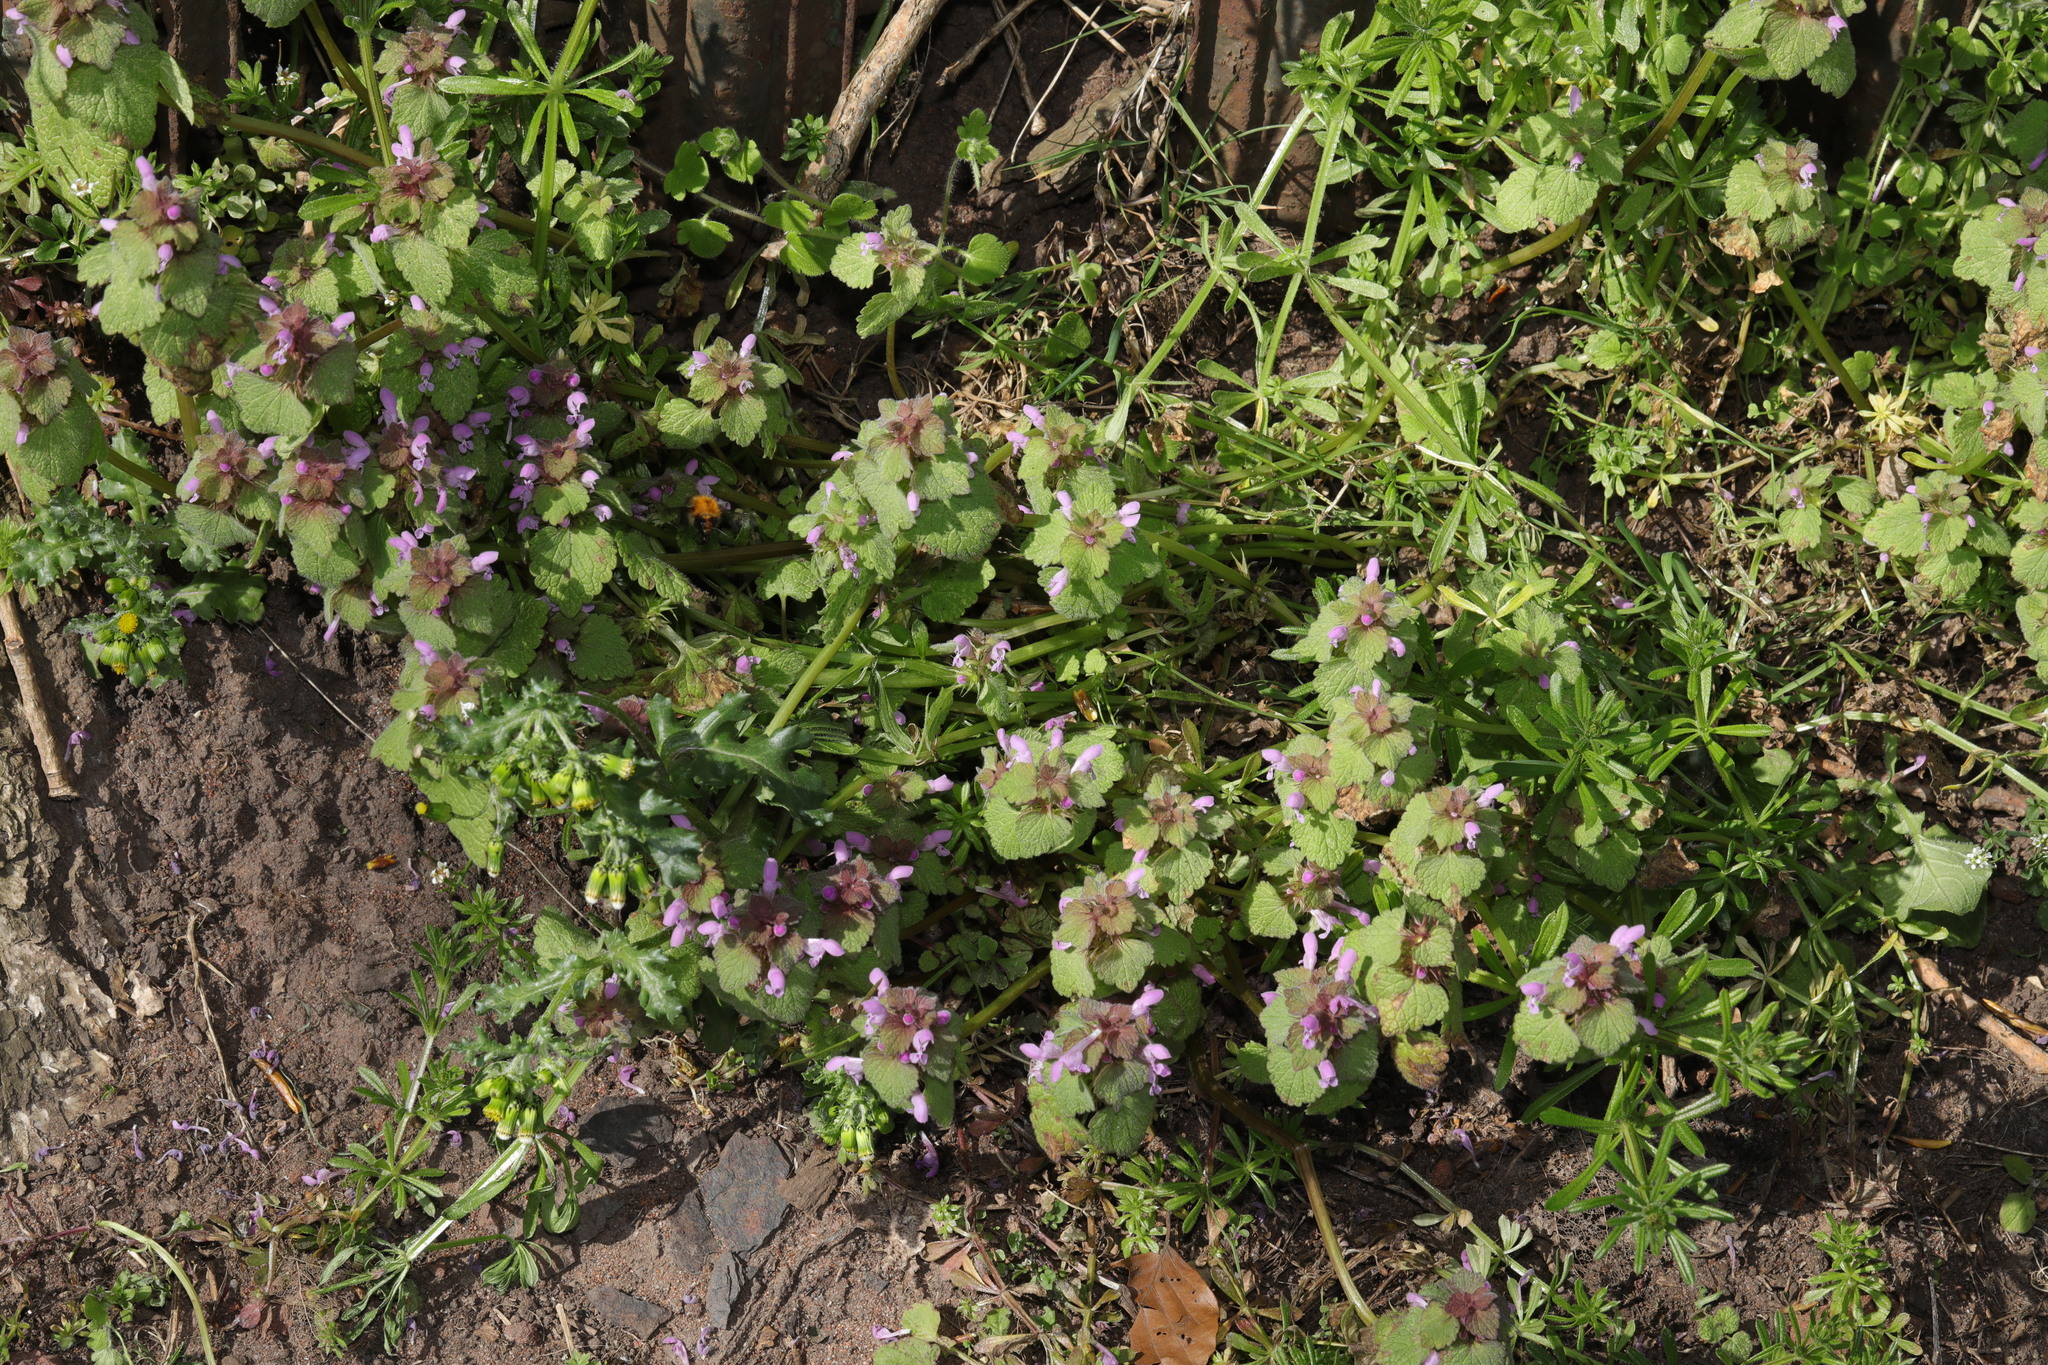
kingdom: Plantae
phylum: Tracheophyta
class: Magnoliopsida
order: Lamiales
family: Lamiaceae
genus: Lamium
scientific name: Lamium purpureum
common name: Red dead-nettle
